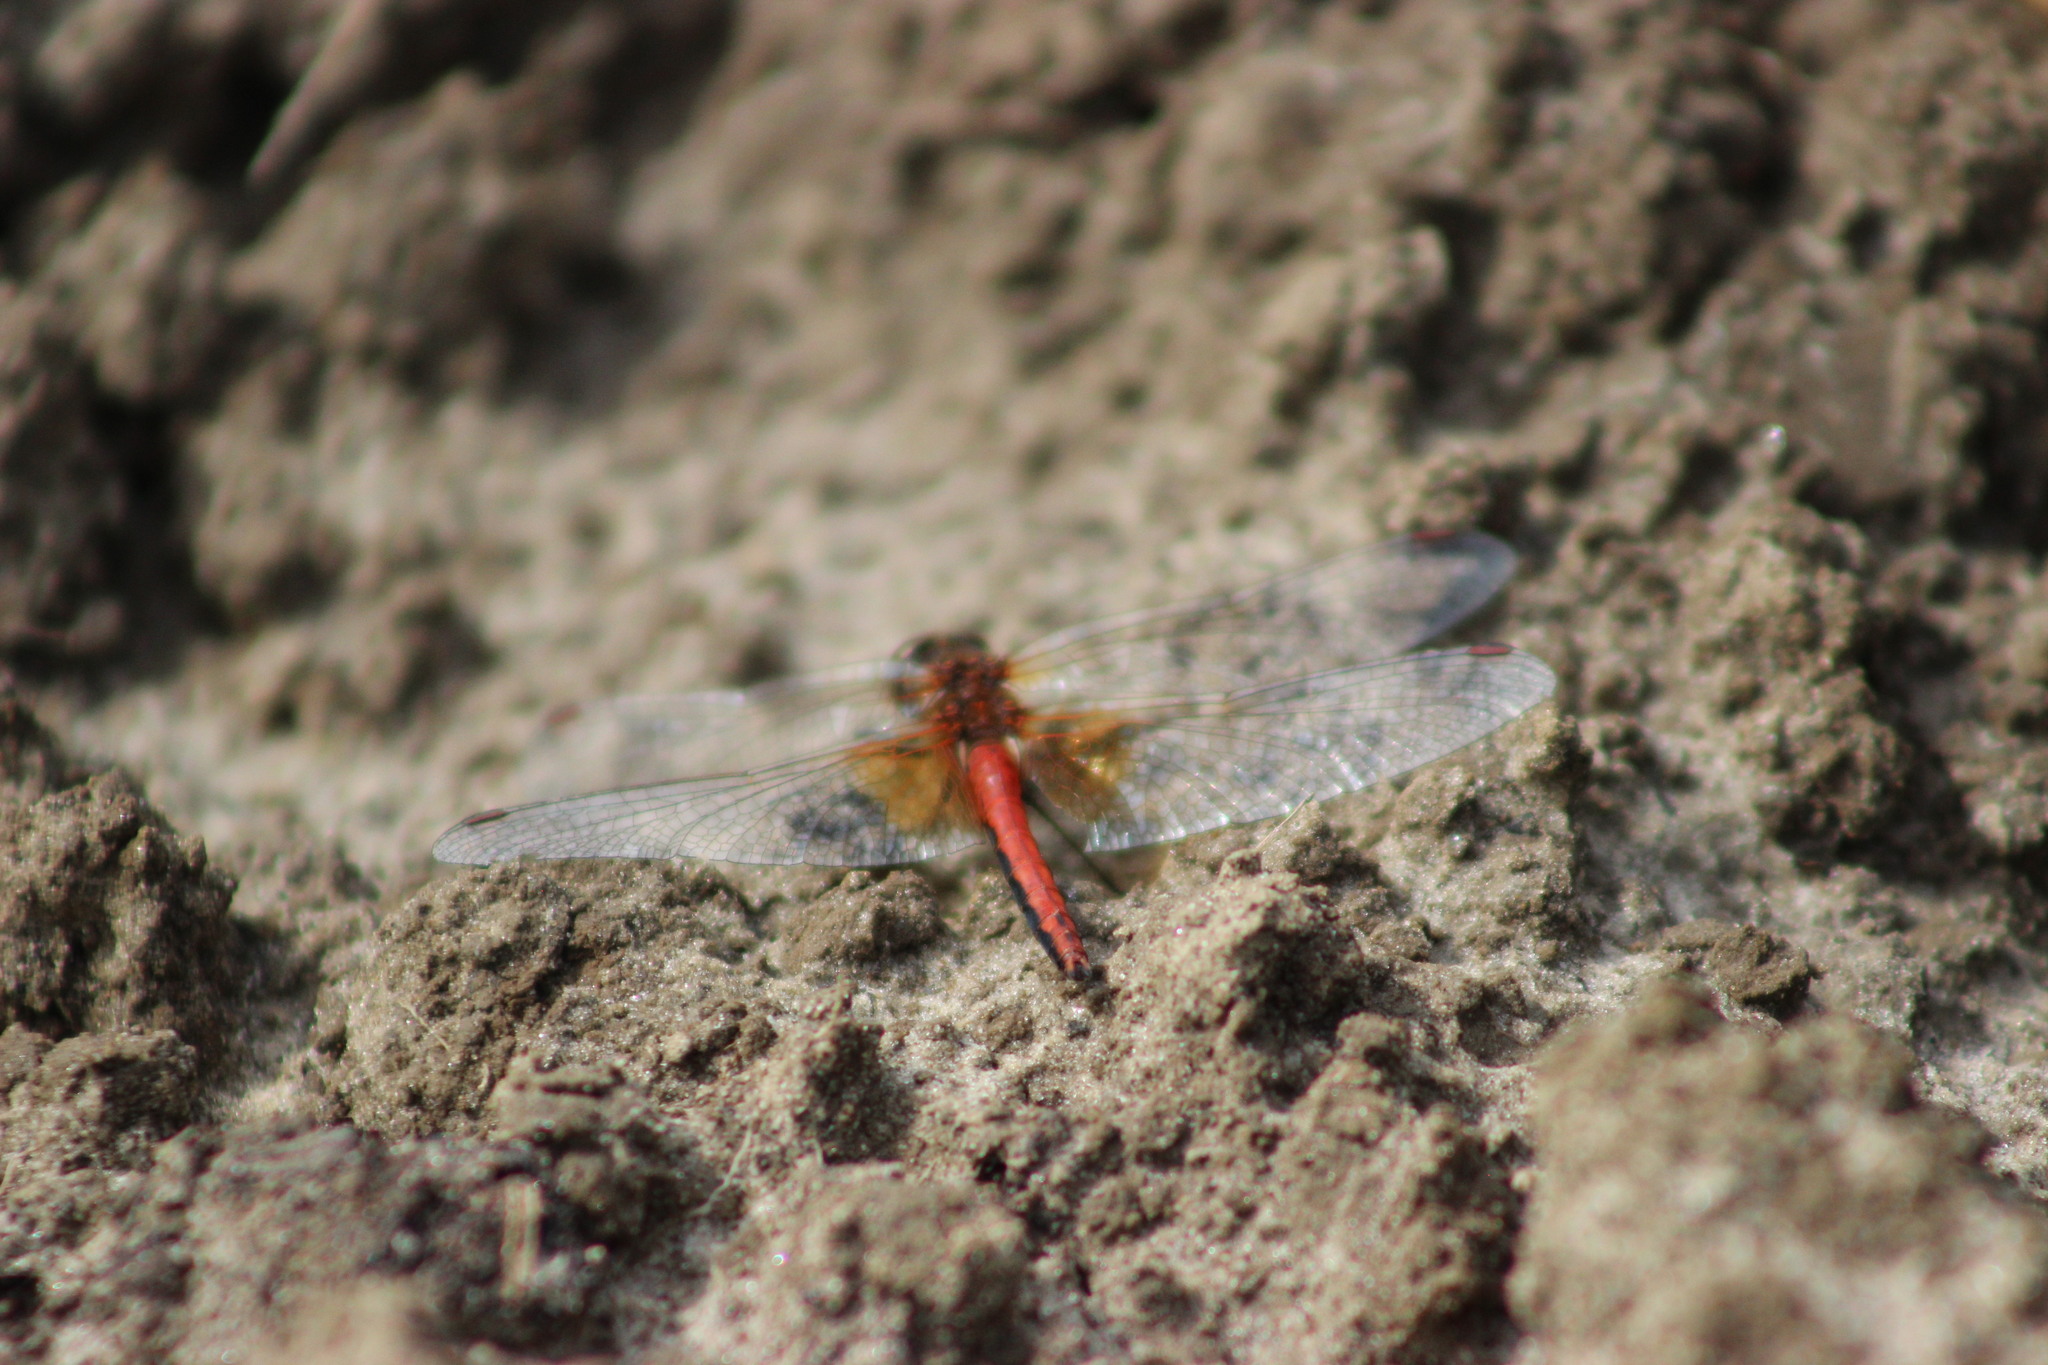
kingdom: Animalia
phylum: Arthropoda
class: Insecta
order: Odonata
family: Libellulidae
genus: Sympetrum
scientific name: Sympetrum flaveolum
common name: Yellow-winged darter
